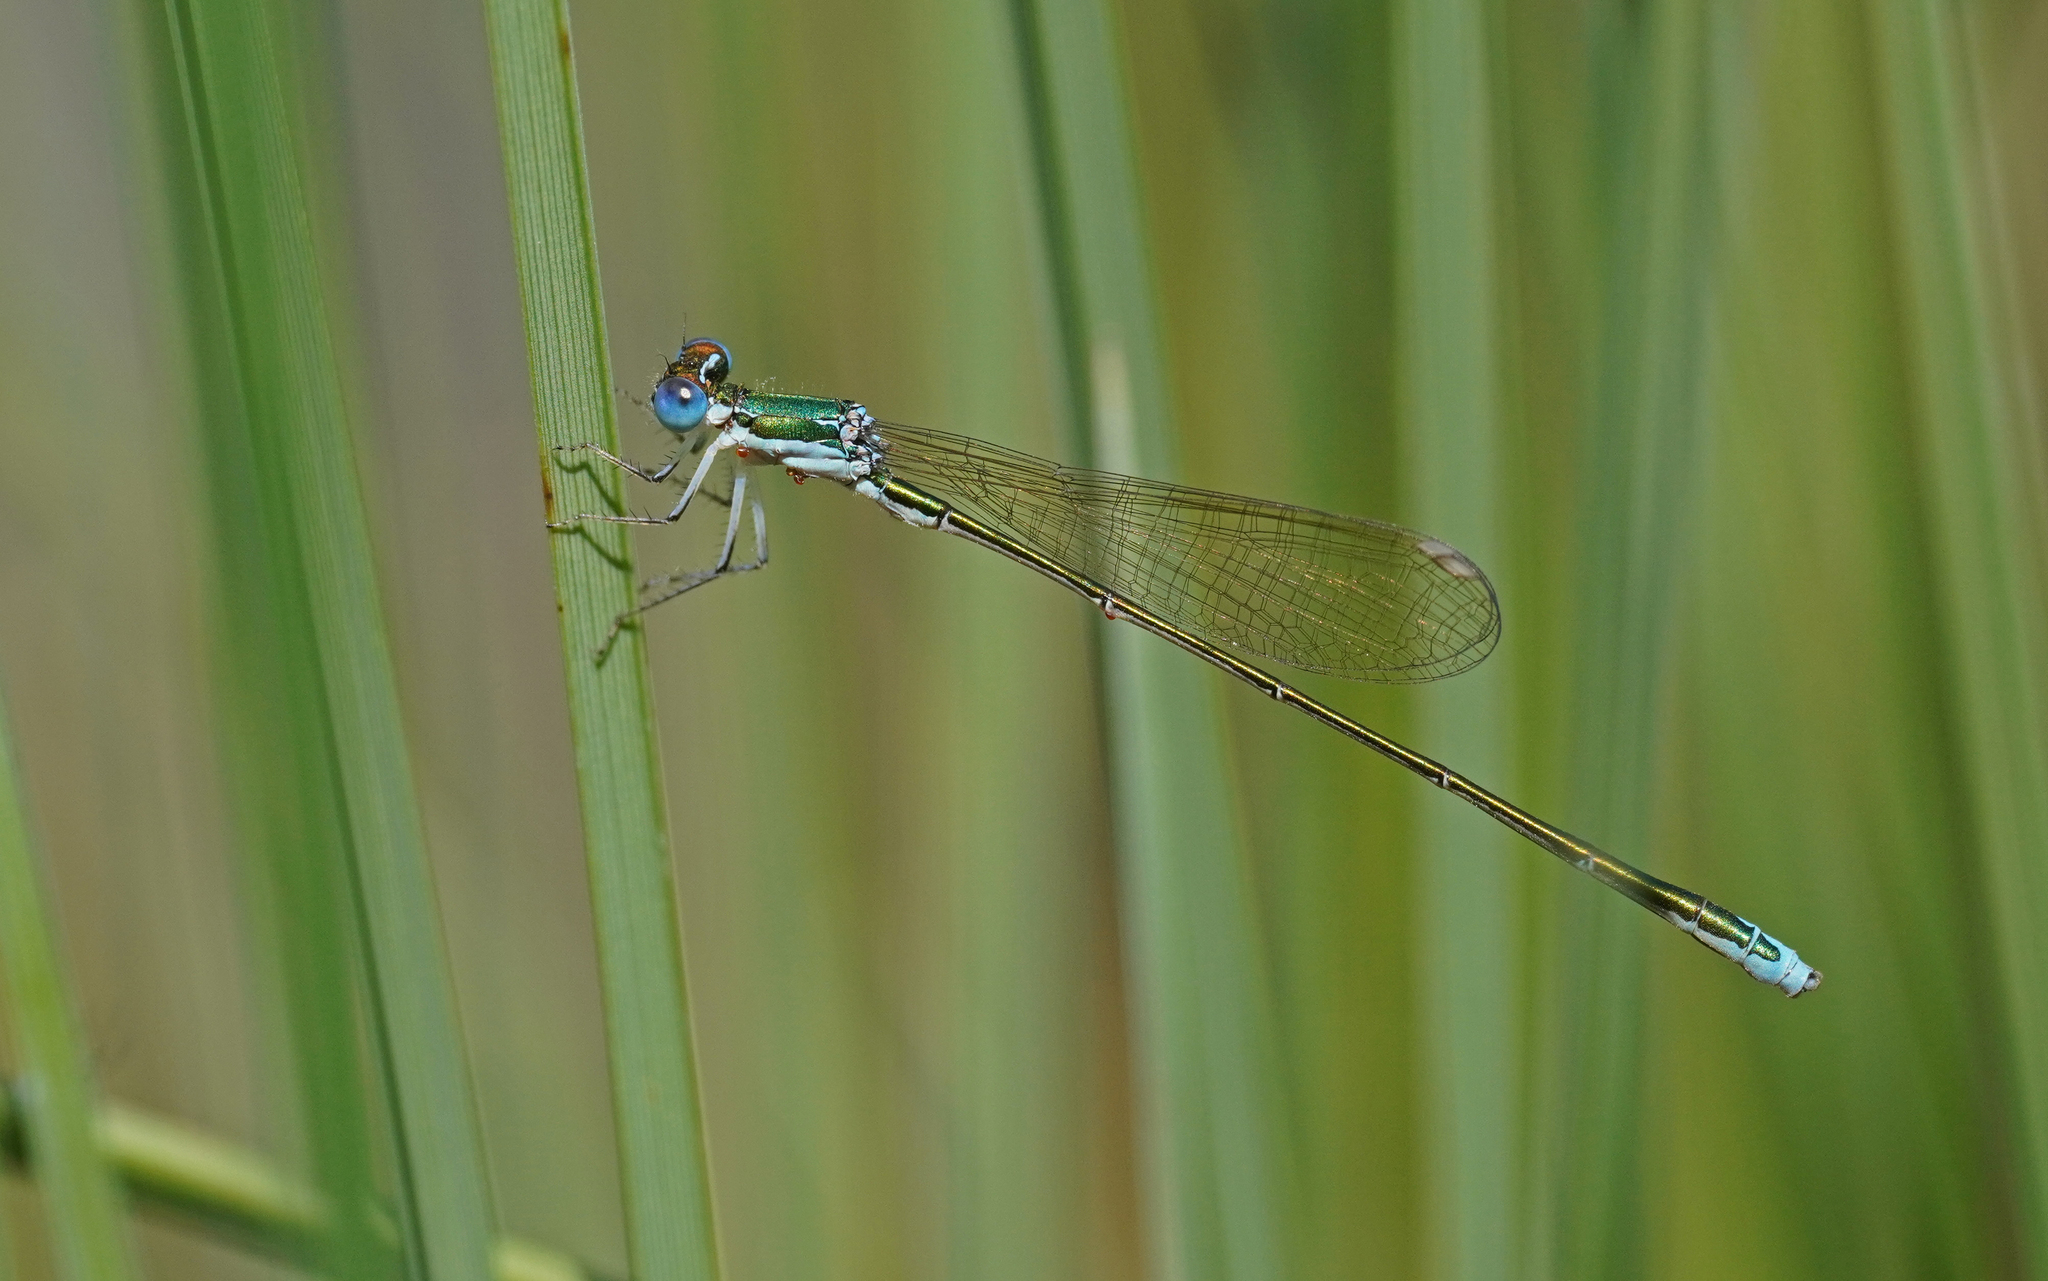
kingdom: Animalia
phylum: Arthropoda
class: Insecta
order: Odonata
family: Coenagrionidae
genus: Nehalennia
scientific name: Nehalennia speciosa
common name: Sedgling
